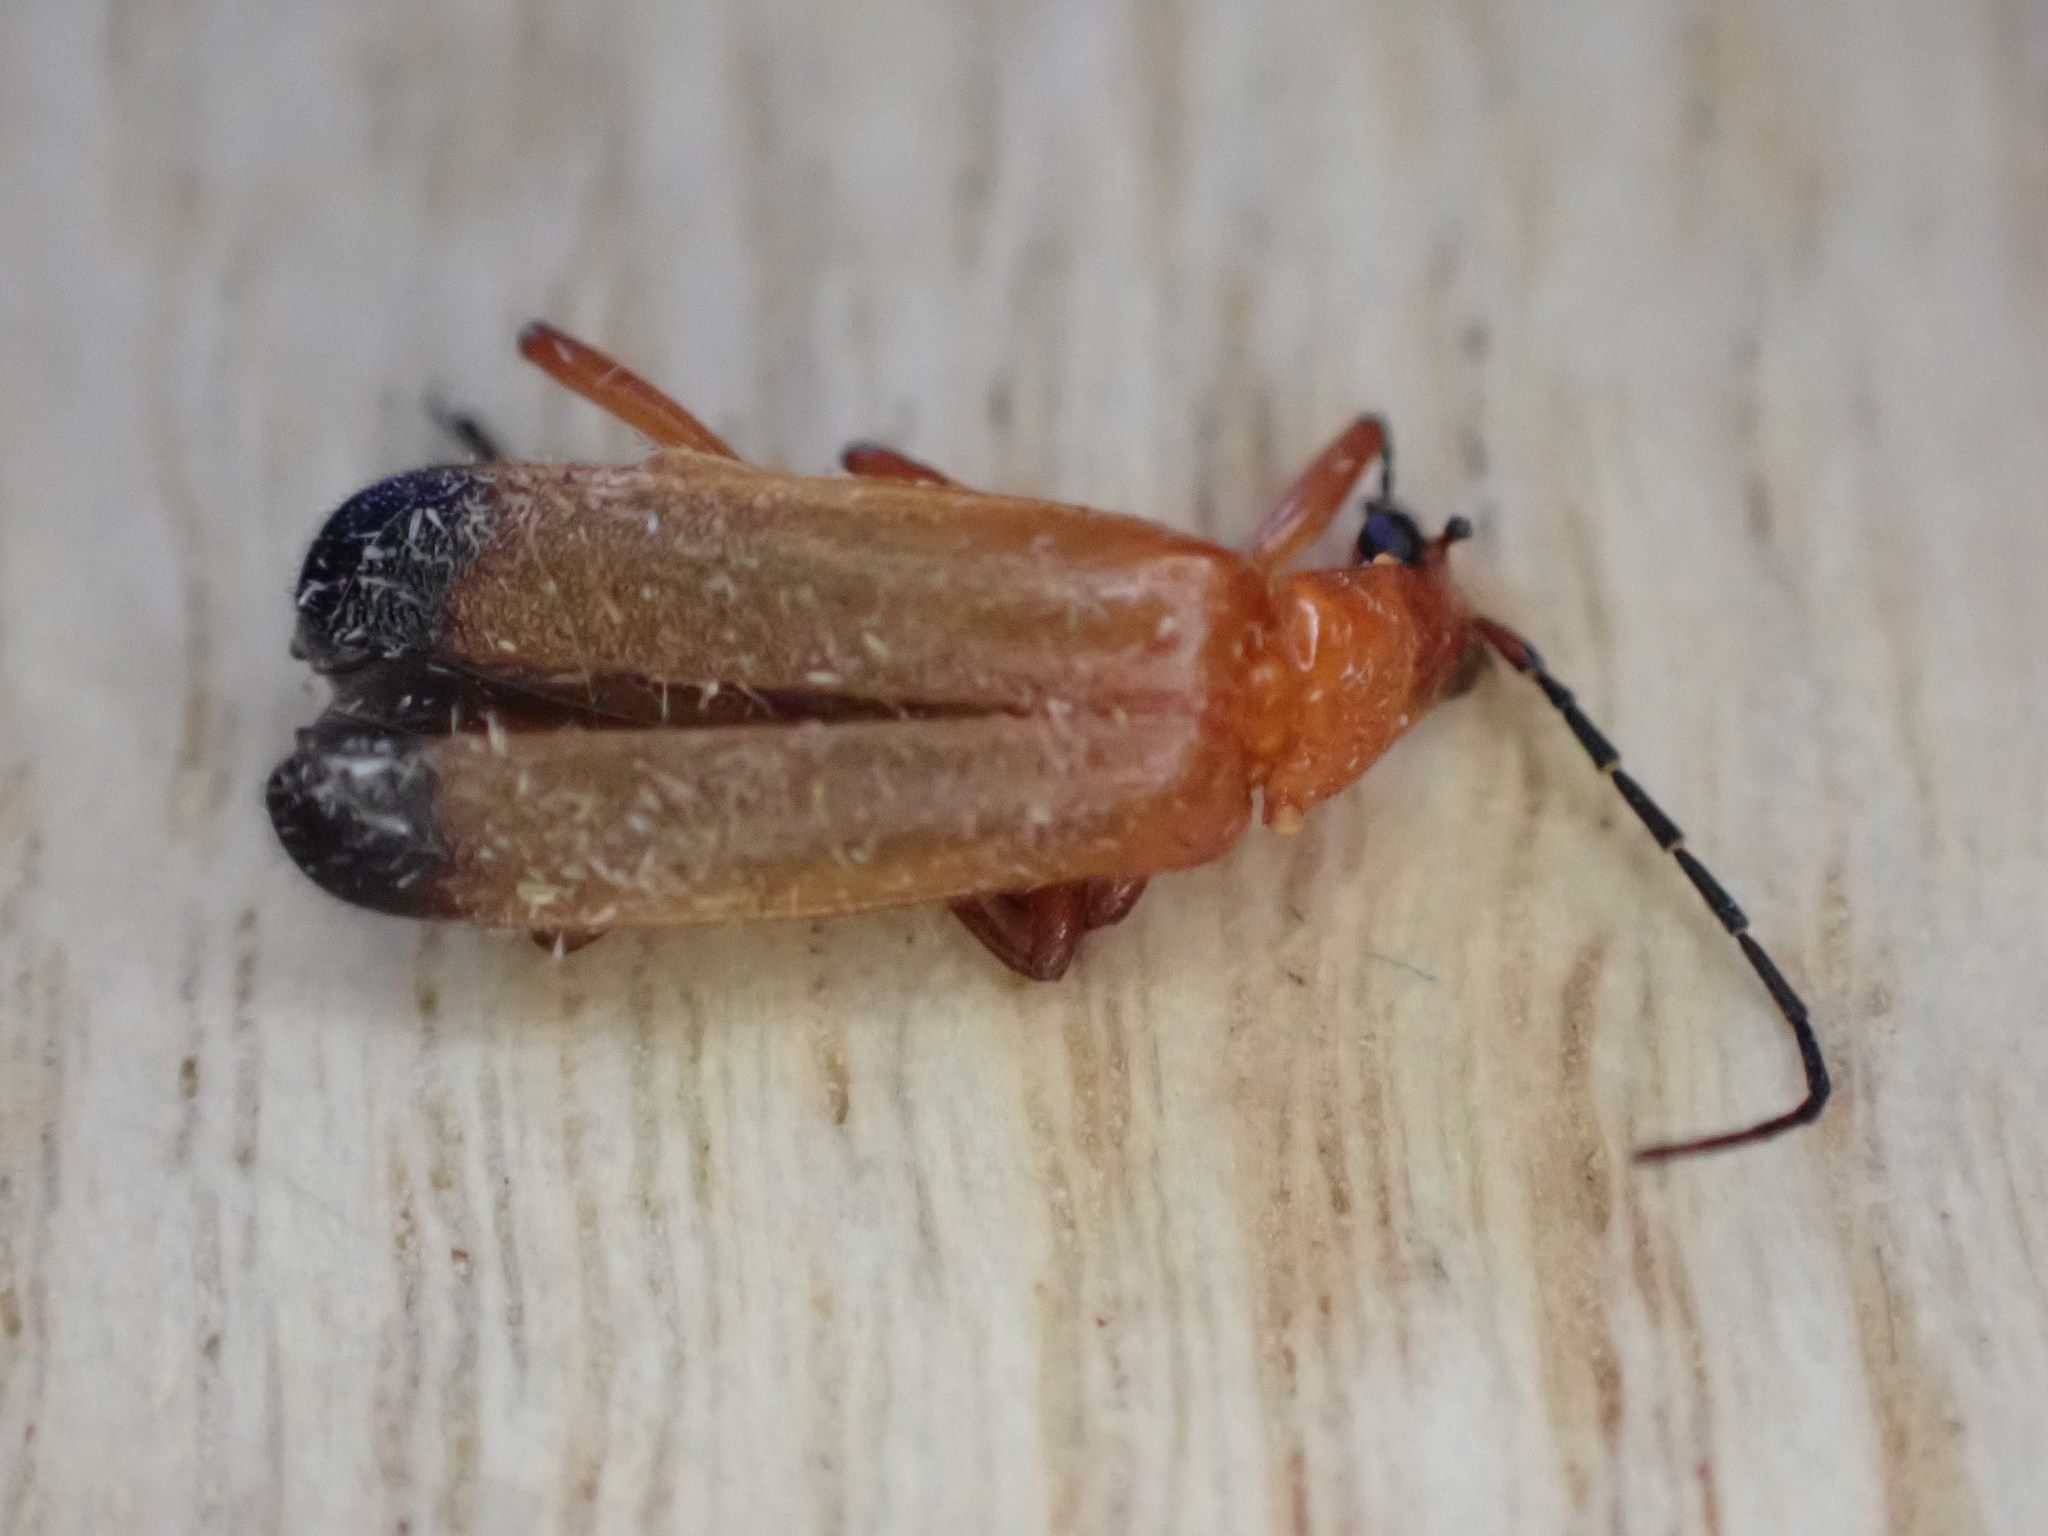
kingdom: Animalia
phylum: Arthropoda
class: Insecta
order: Coleoptera
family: Cantharidae
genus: Rhagonycha
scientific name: Rhagonycha fulva
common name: Common red soldier beetle
